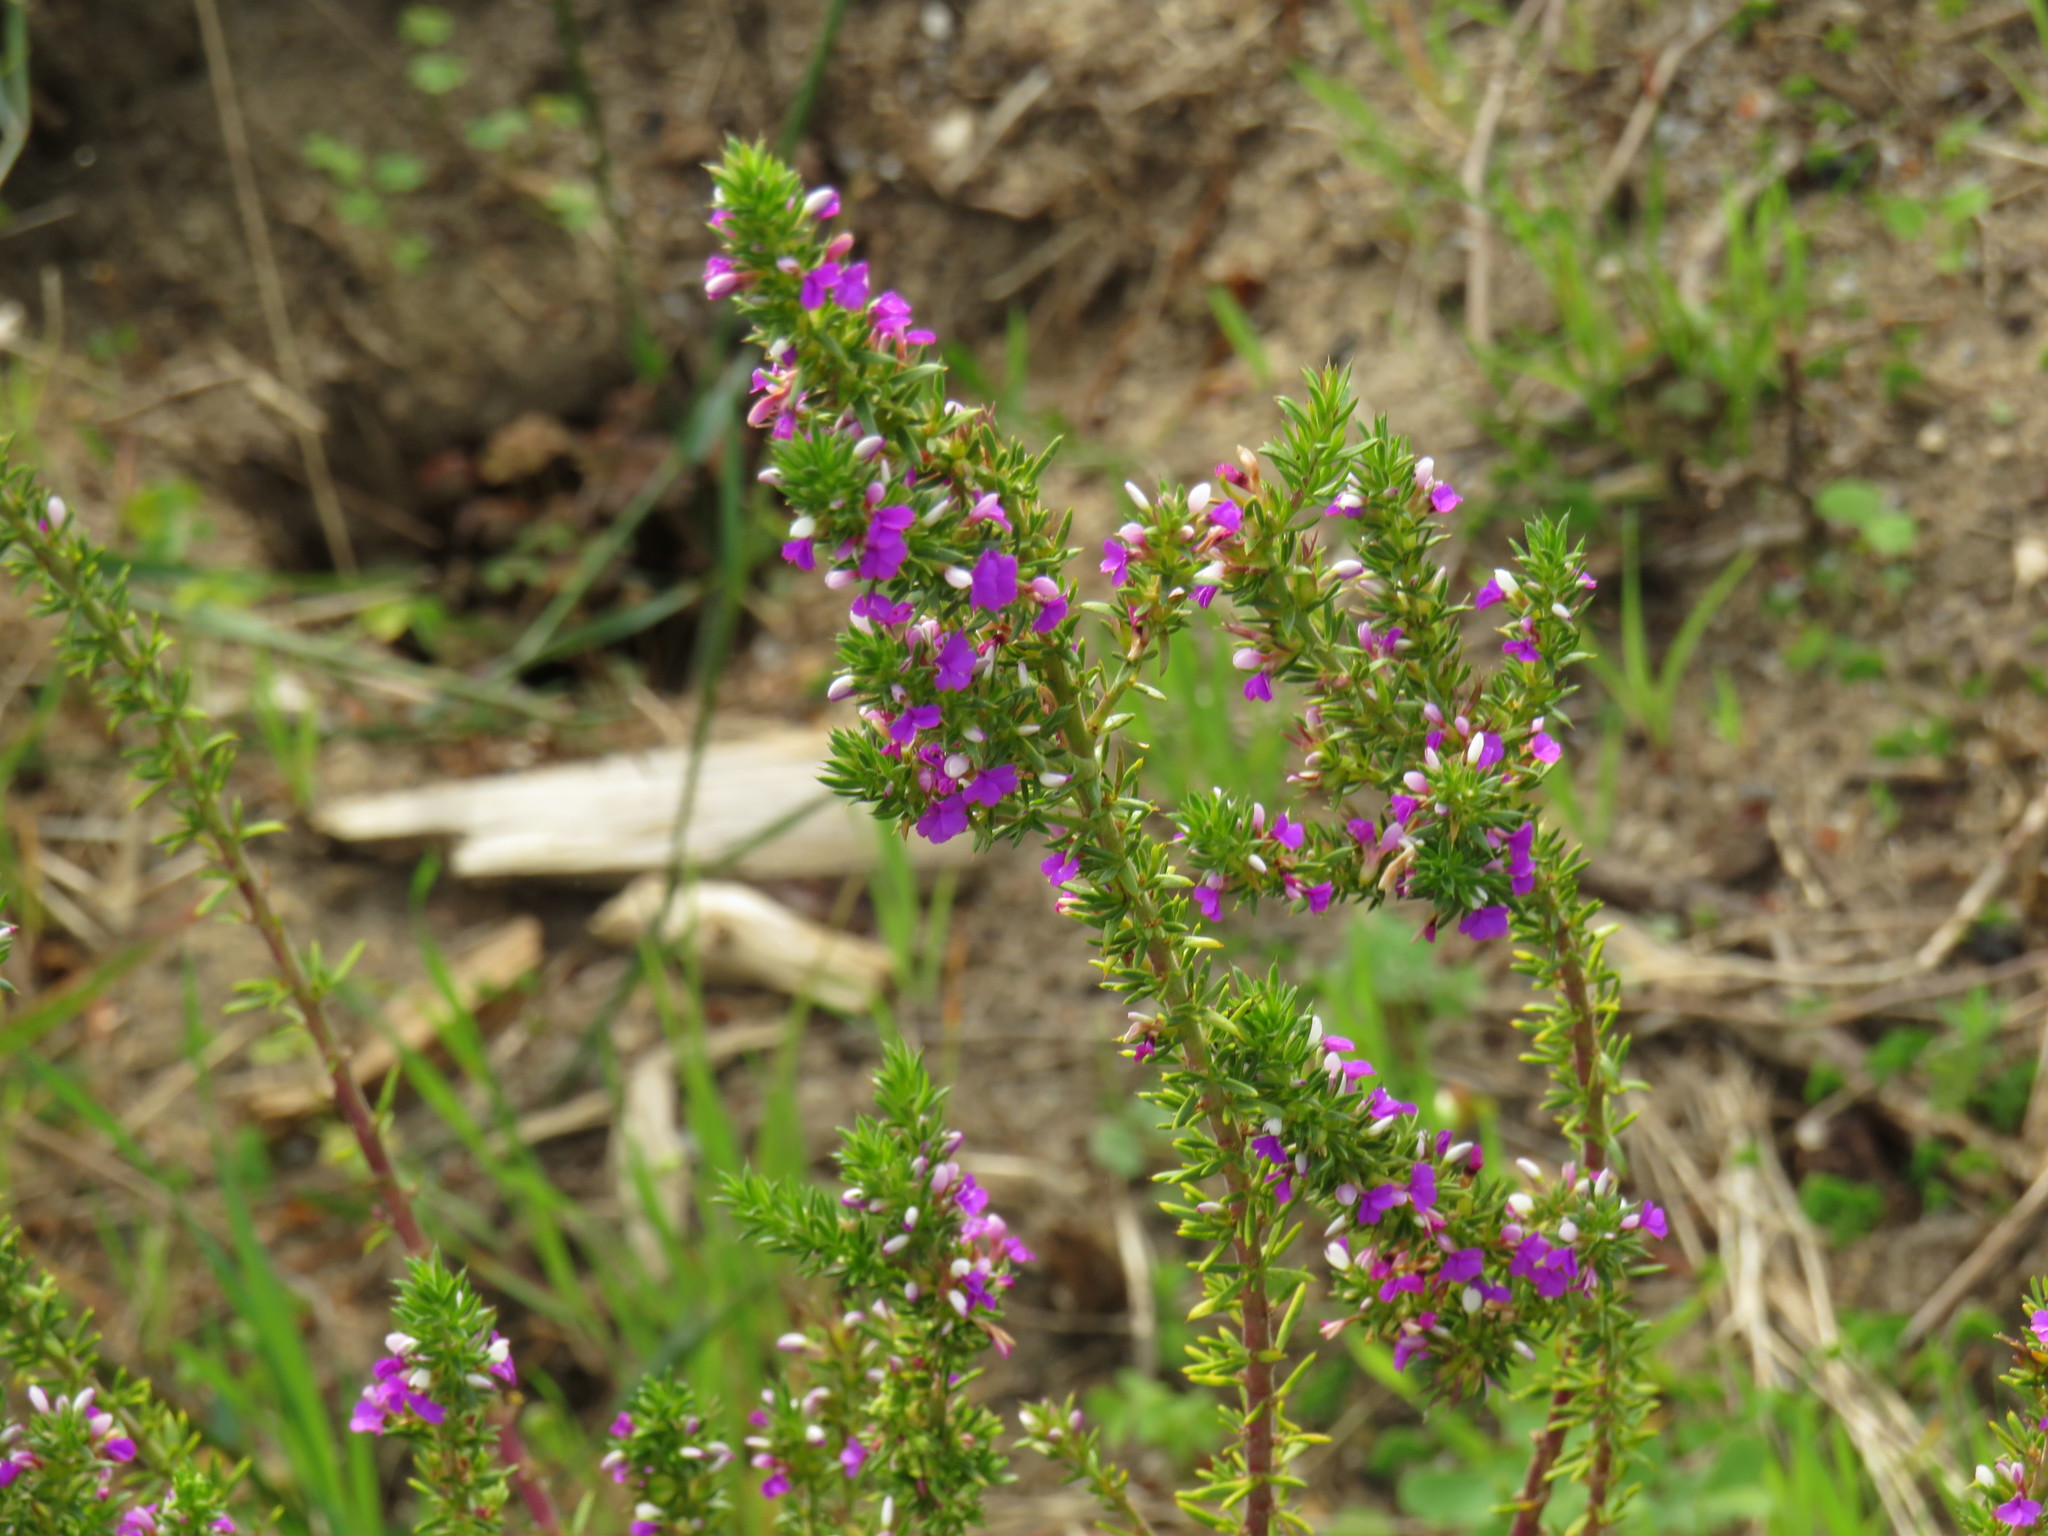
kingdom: Plantae
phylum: Tracheophyta
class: Magnoliopsida
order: Fabales
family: Polygalaceae
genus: Muraltia
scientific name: Muraltia heisteria
